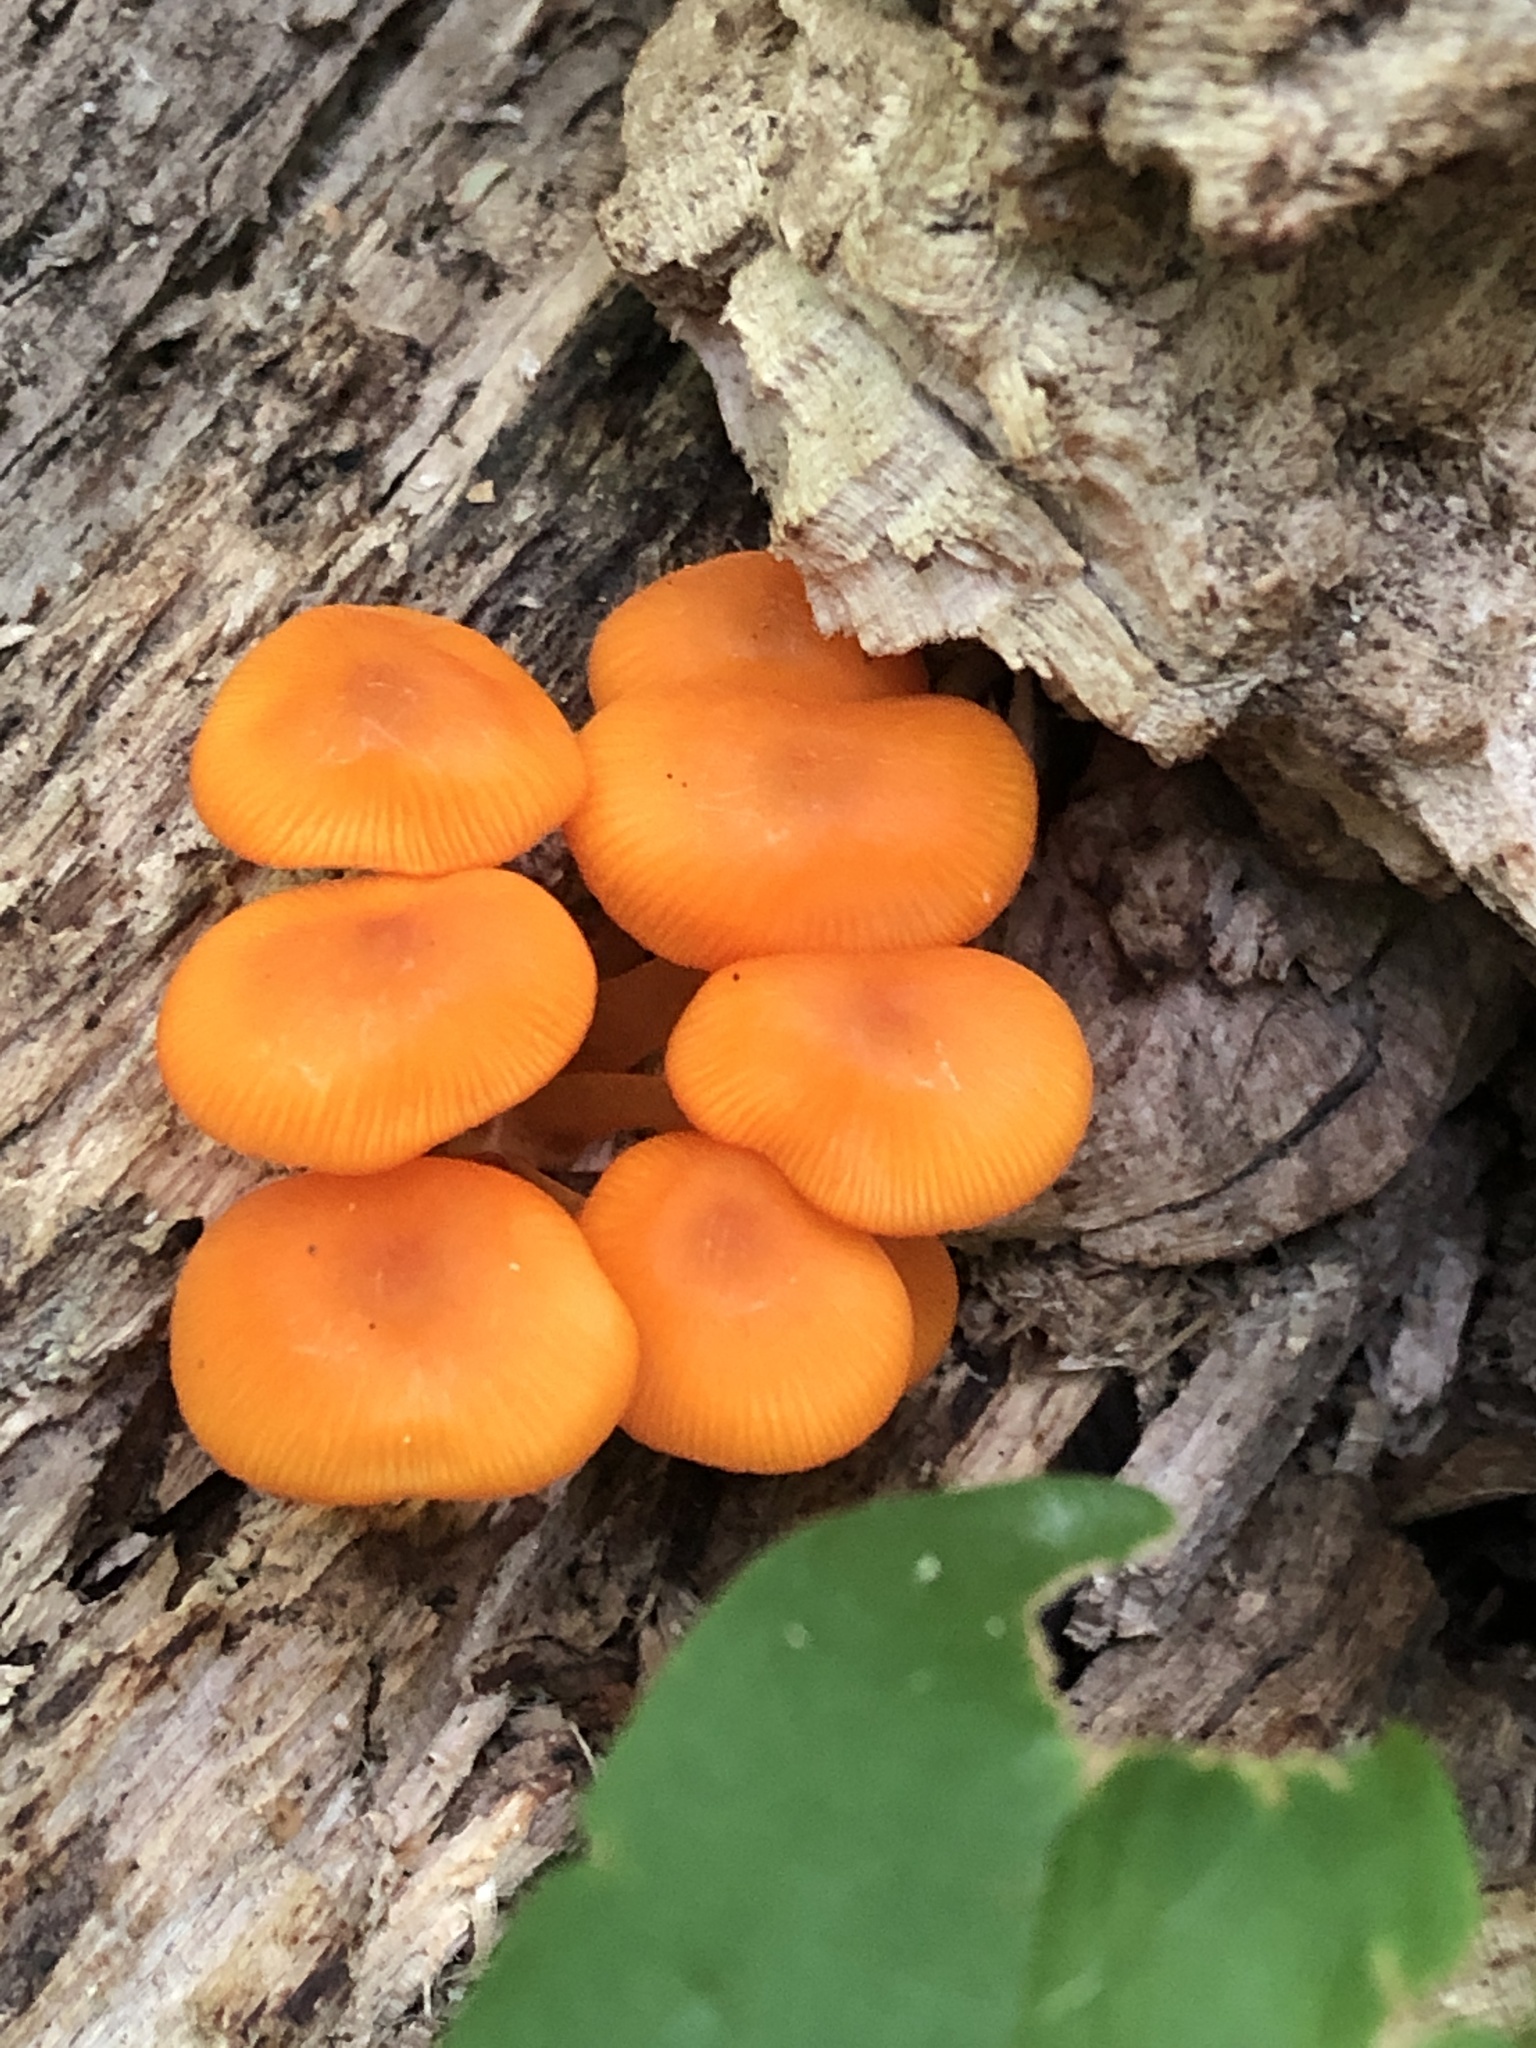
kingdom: Fungi
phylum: Basidiomycota
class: Agaricomycetes
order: Agaricales
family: Mycenaceae
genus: Mycena
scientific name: Mycena leaiana
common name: Orange mycena
